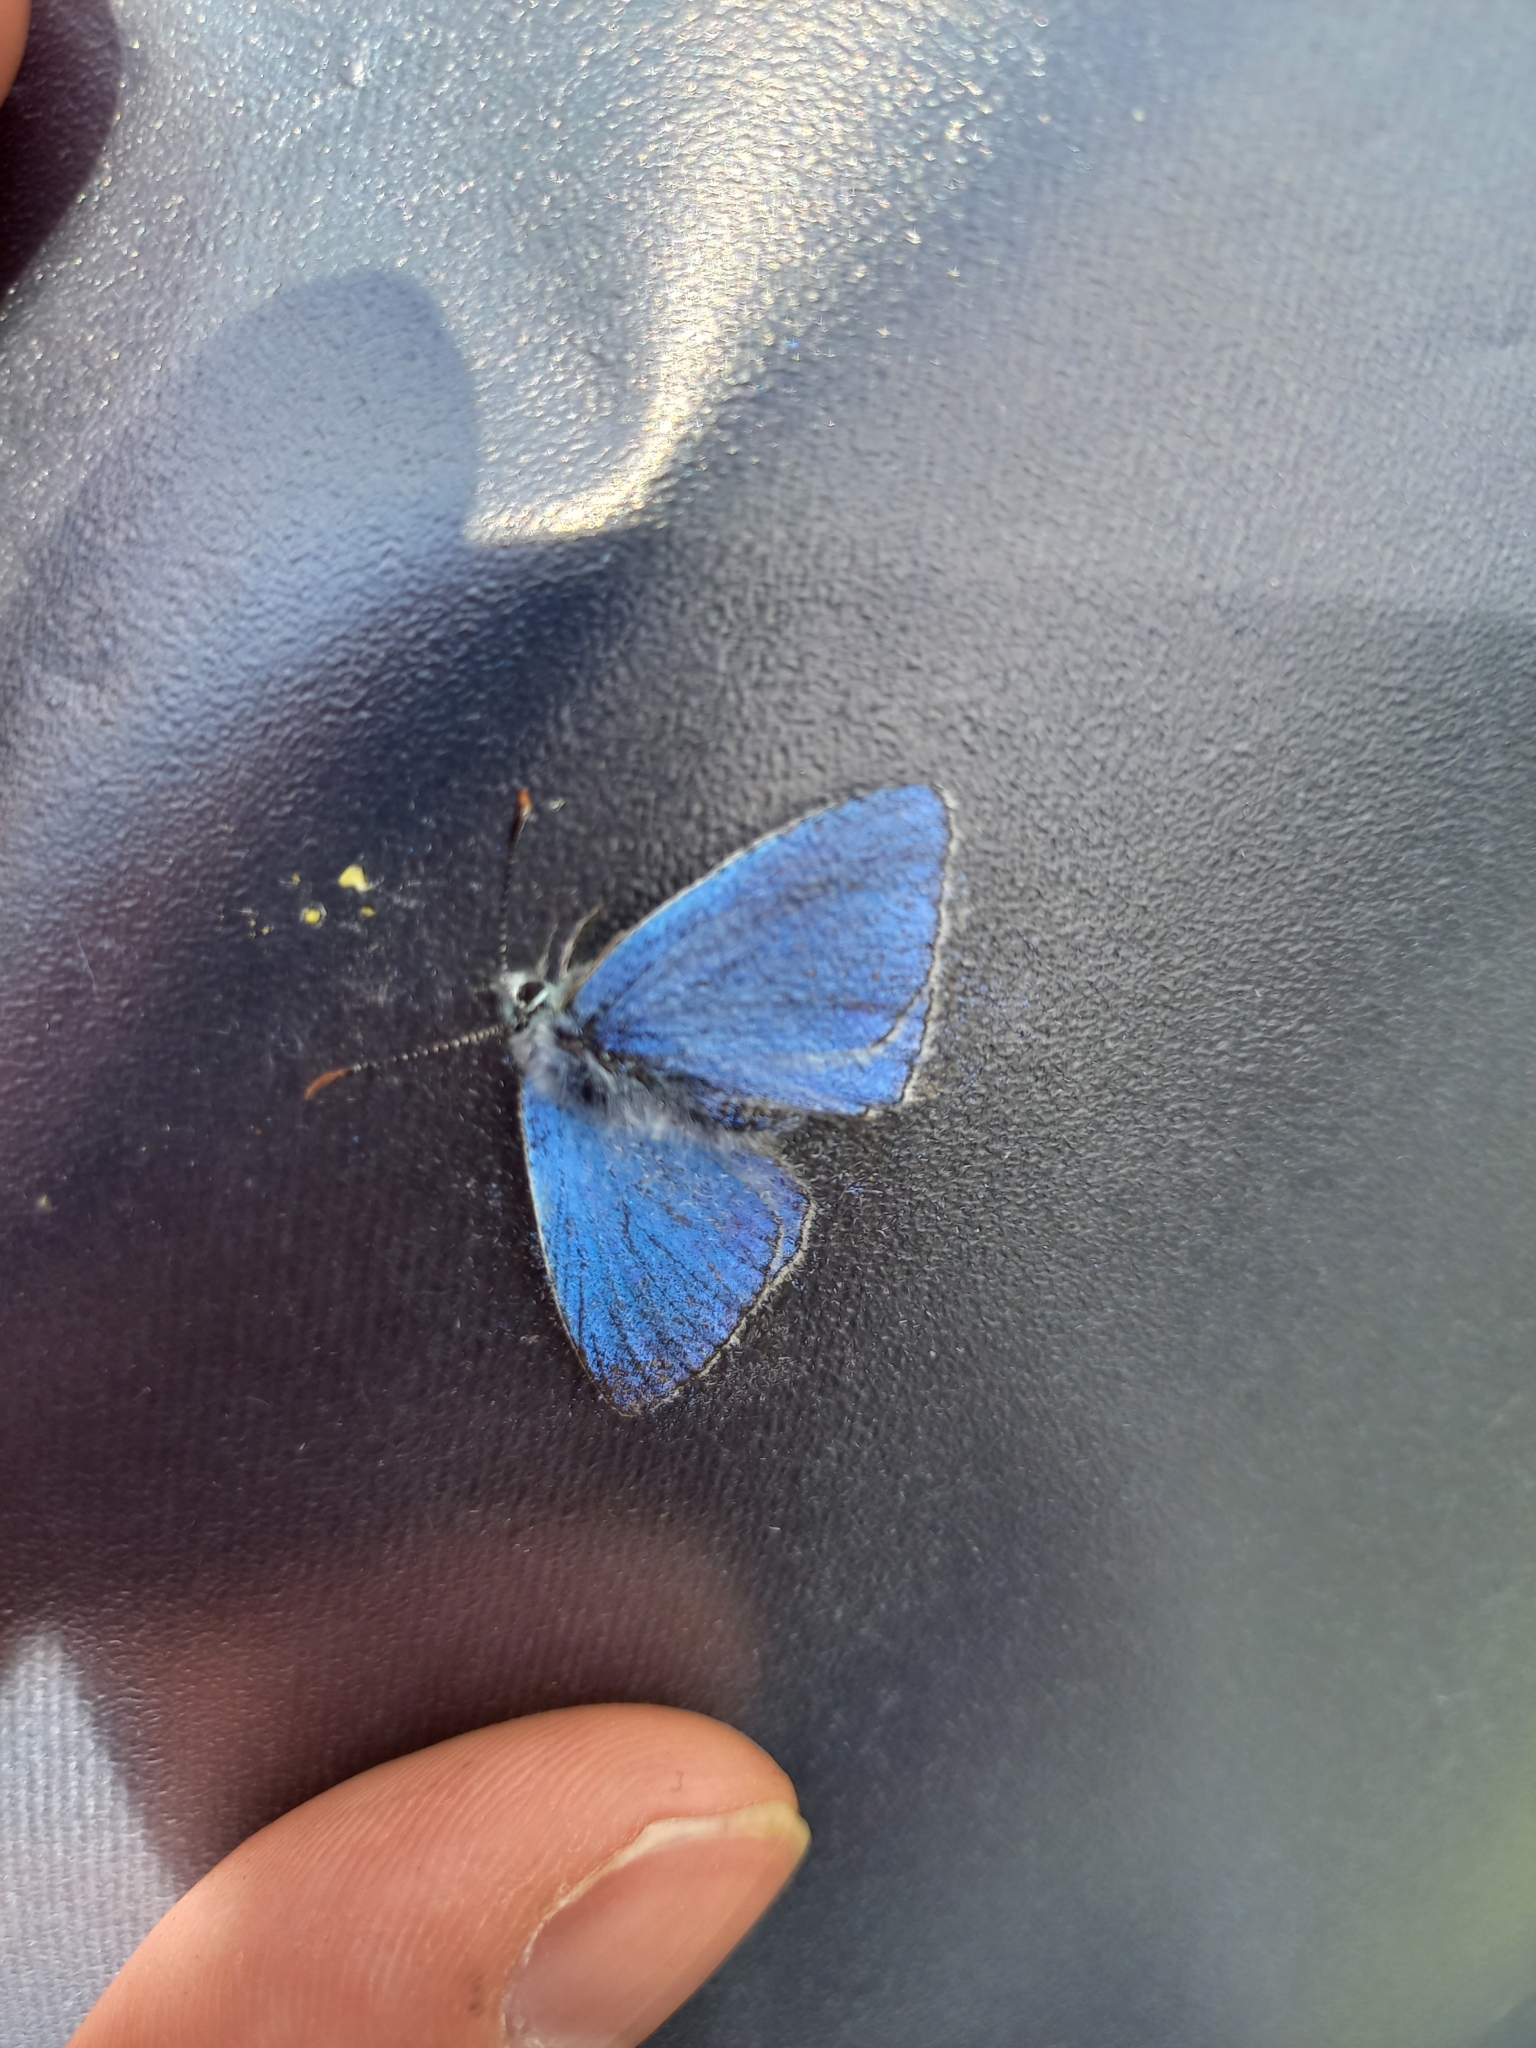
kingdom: Animalia
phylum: Arthropoda
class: Insecta
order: Lepidoptera
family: Lycaenidae
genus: Lysandra
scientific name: Lysandra bellargus
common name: Adonis blue
